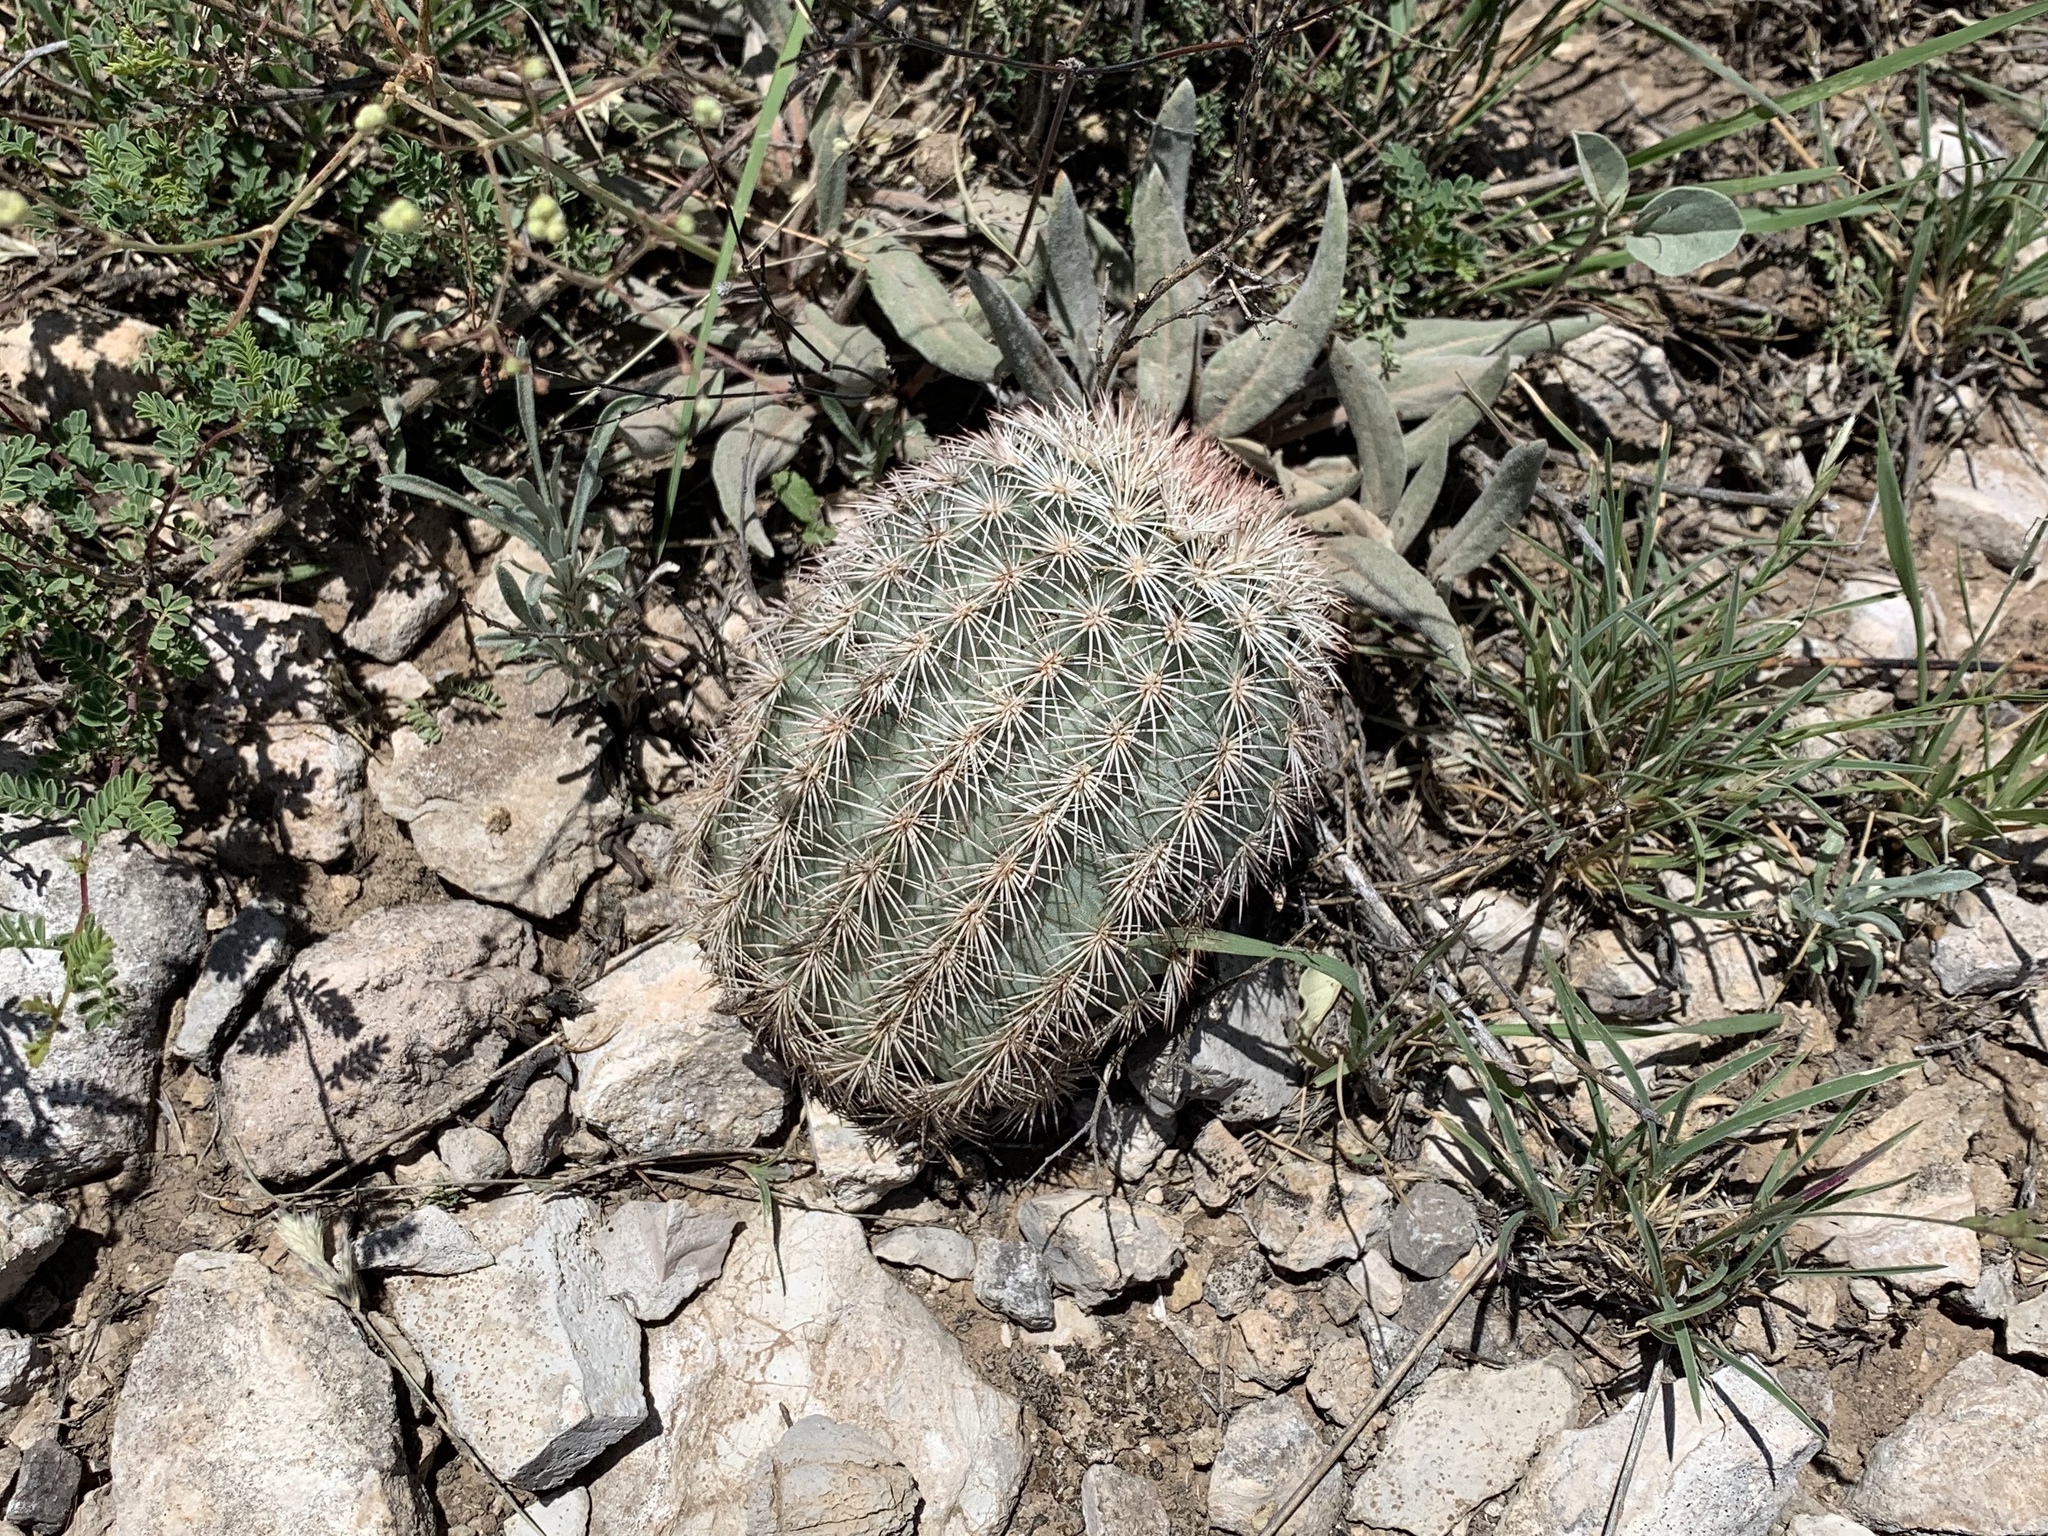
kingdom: Plantae
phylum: Tracheophyta
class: Magnoliopsida
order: Caryophyllales
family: Cactaceae
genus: Echinocereus
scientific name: Echinocereus dasyacanthus
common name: Spiny hedgehog cactus
